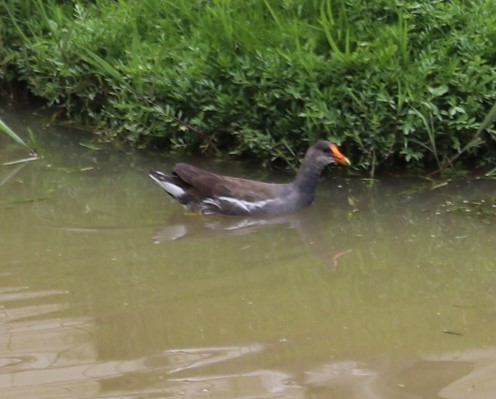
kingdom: Animalia
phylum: Chordata
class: Aves
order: Gruiformes
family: Rallidae
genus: Gallinula
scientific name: Gallinula chloropus
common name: Common moorhen
